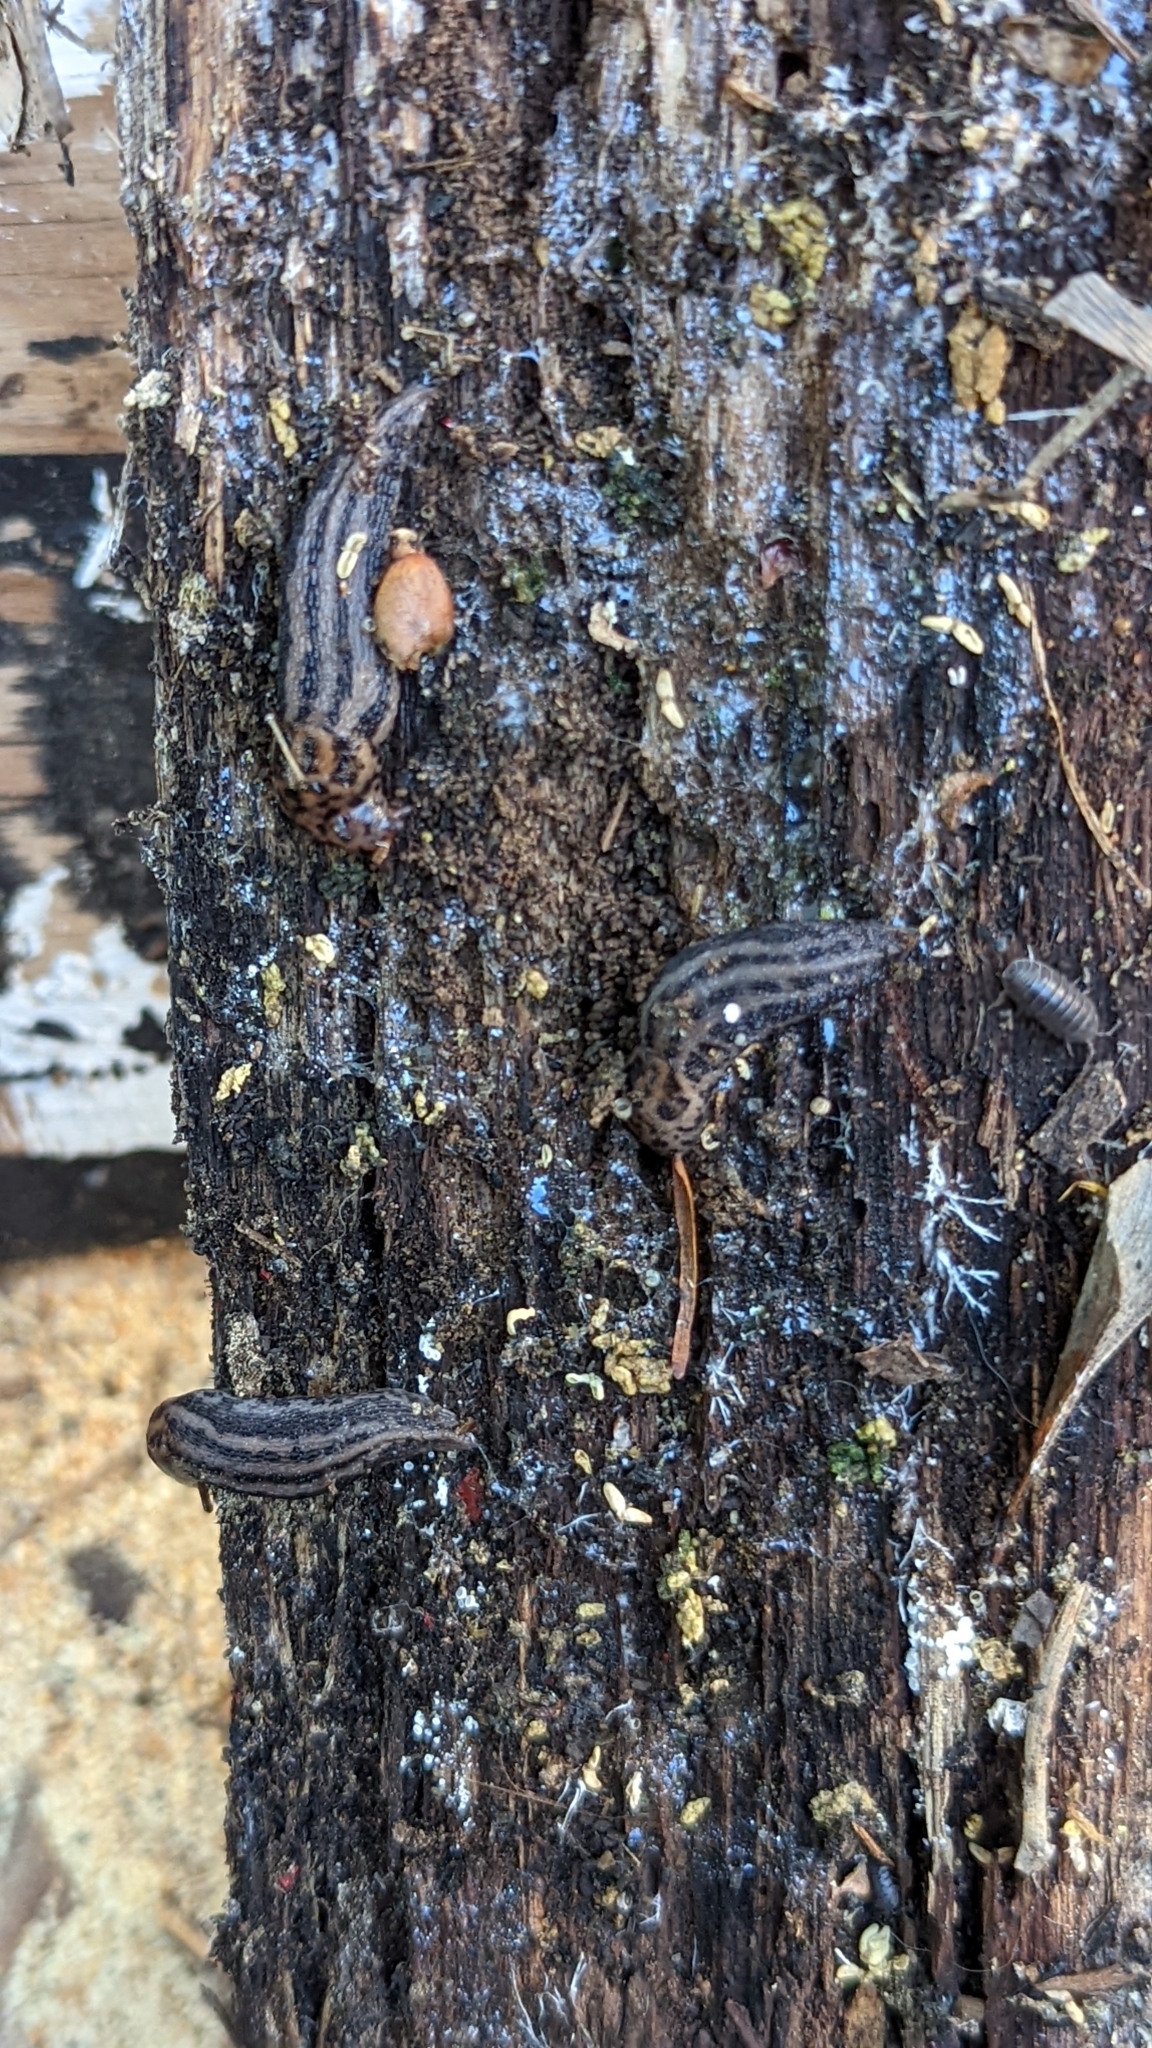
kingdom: Animalia
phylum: Mollusca
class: Gastropoda
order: Stylommatophora
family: Limacidae
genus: Limax
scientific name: Limax maximus
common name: Great grey slug
